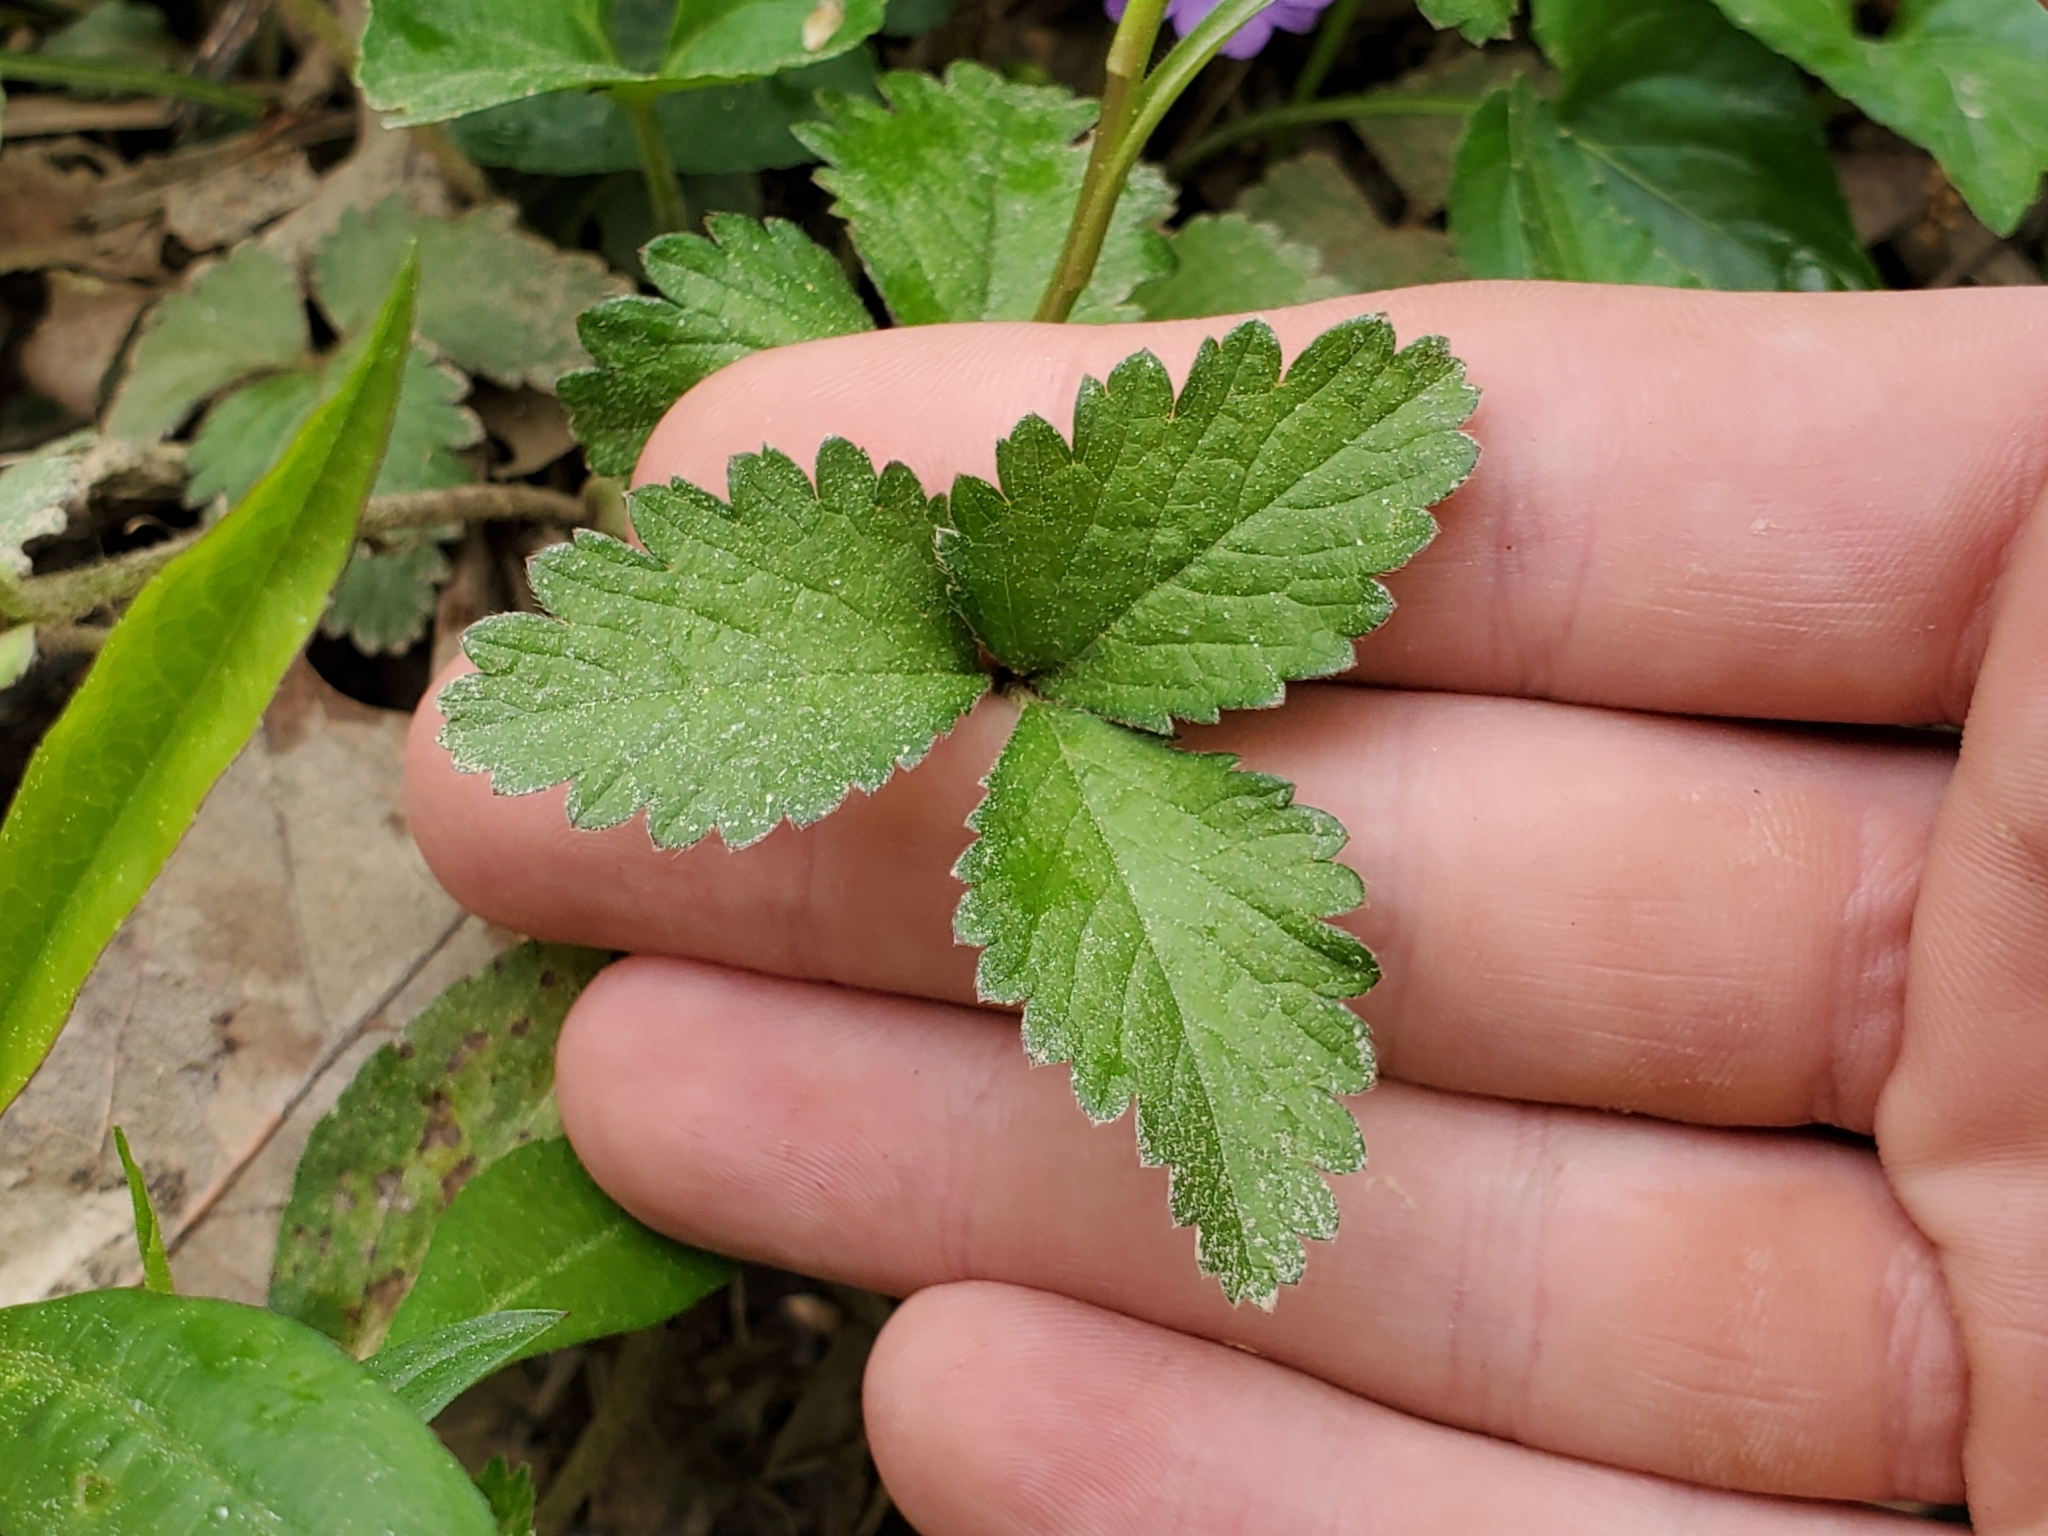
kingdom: Plantae
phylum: Tracheophyta
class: Magnoliopsida
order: Rosales
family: Rosaceae
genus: Potentilla
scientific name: Potentilla indica
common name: Yellow-flowered strawberry
